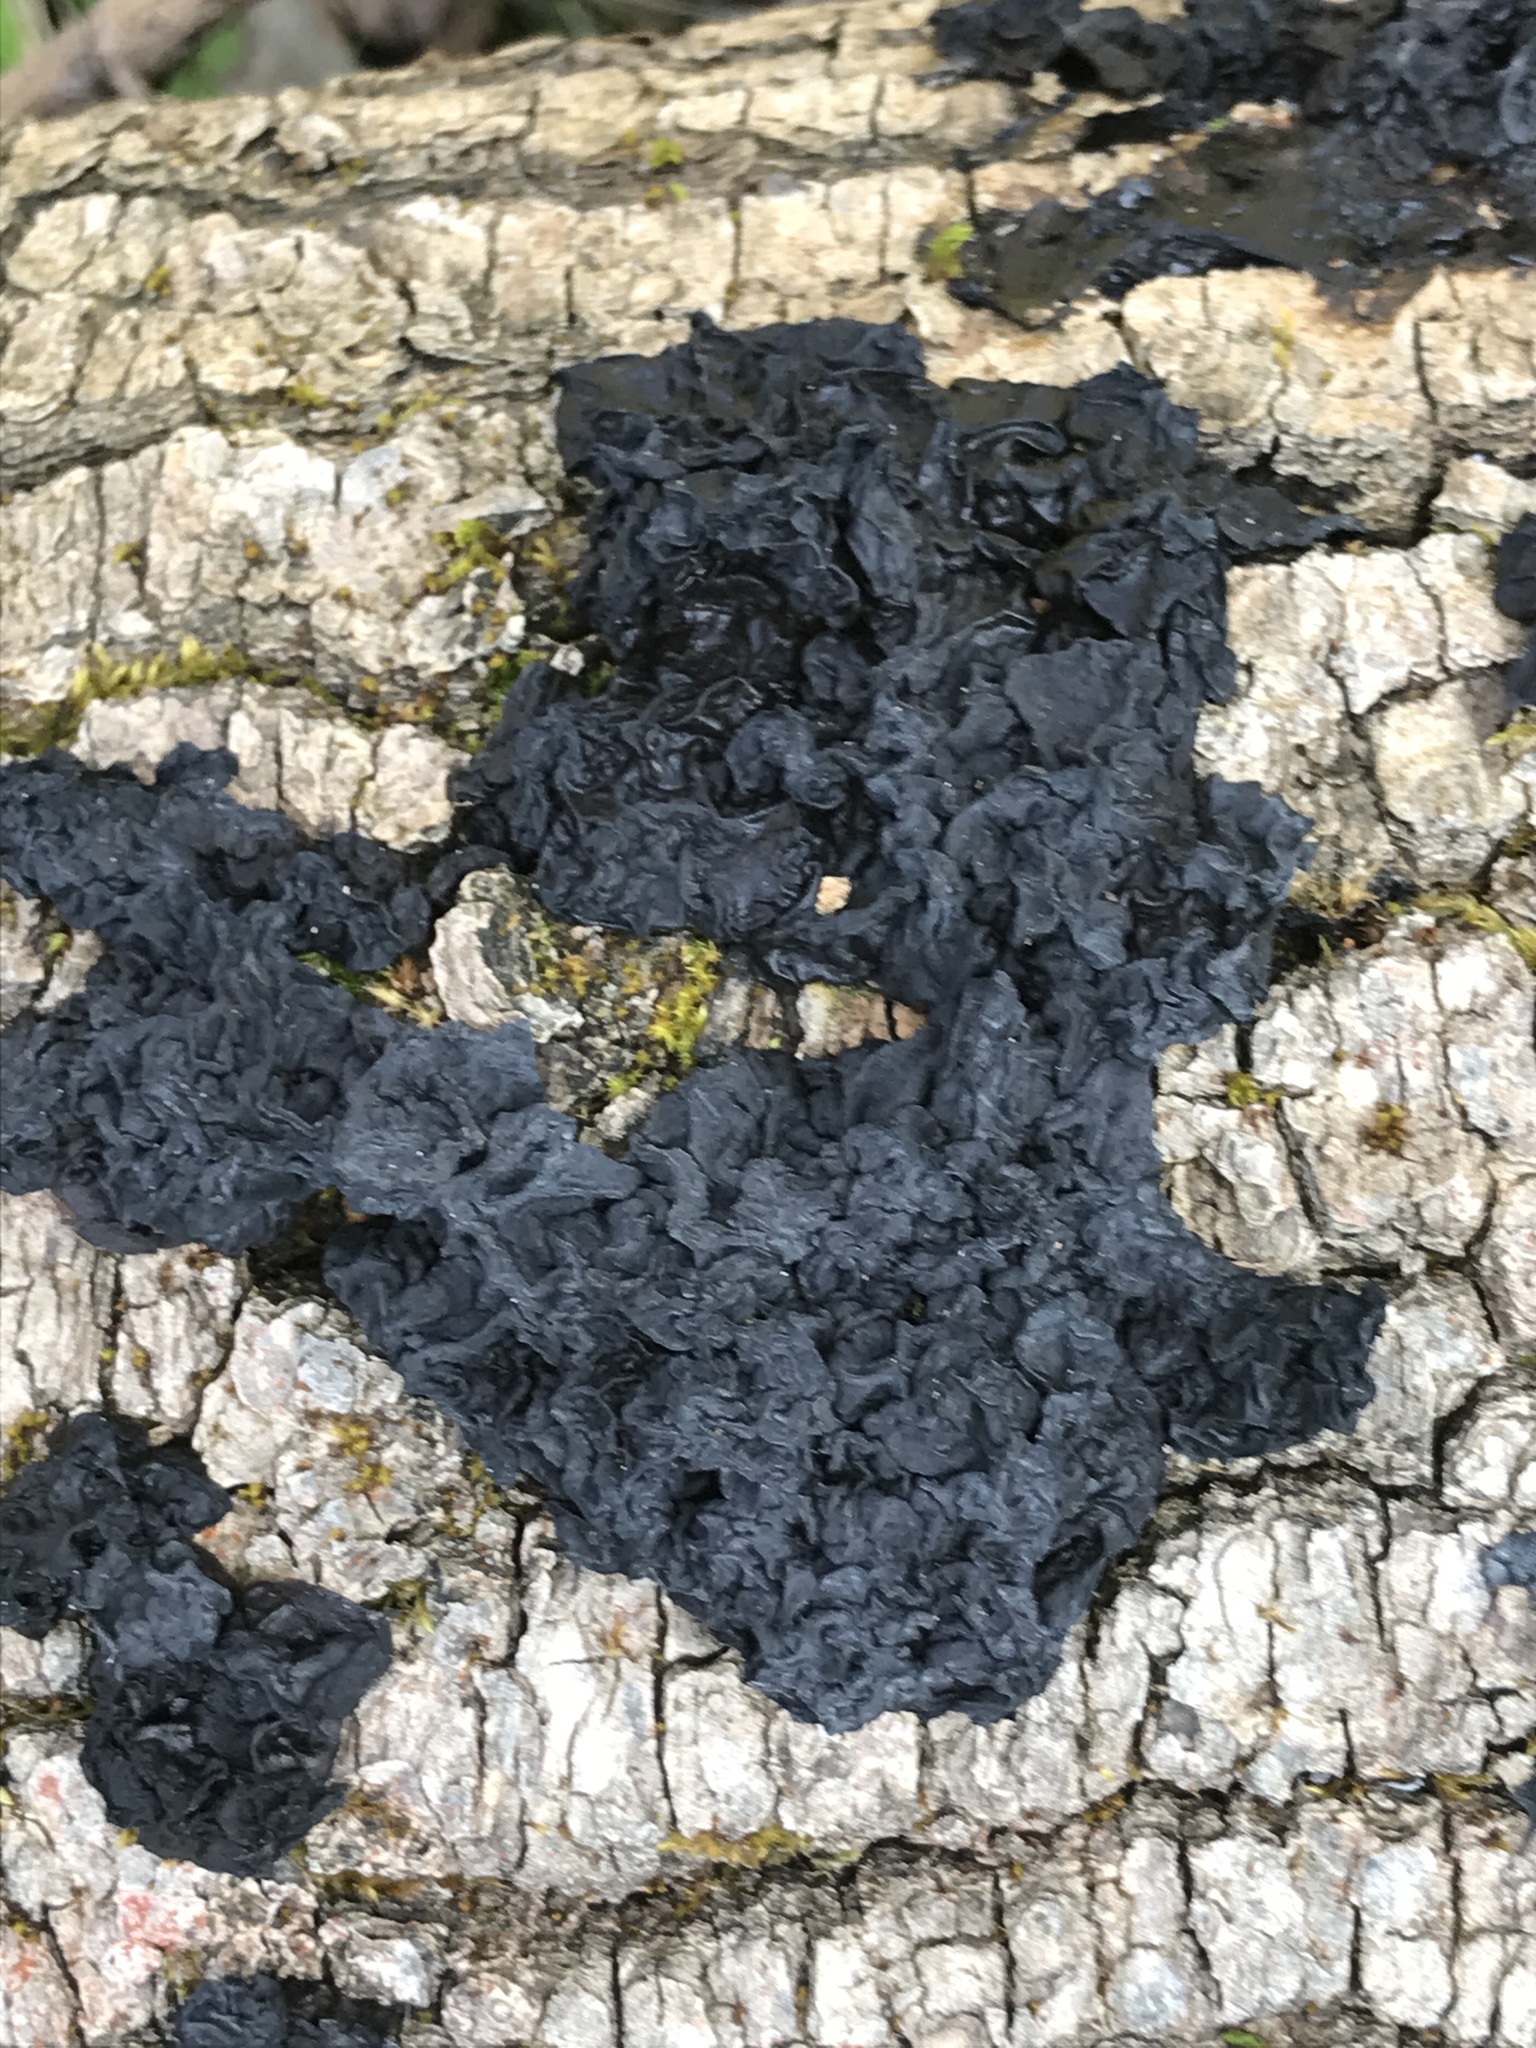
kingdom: Fungi
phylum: Basidiomycota
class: Agaricomycetes
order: Auriculariales
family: Auriculariaceae
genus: Exidia
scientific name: Exidia nigricans
